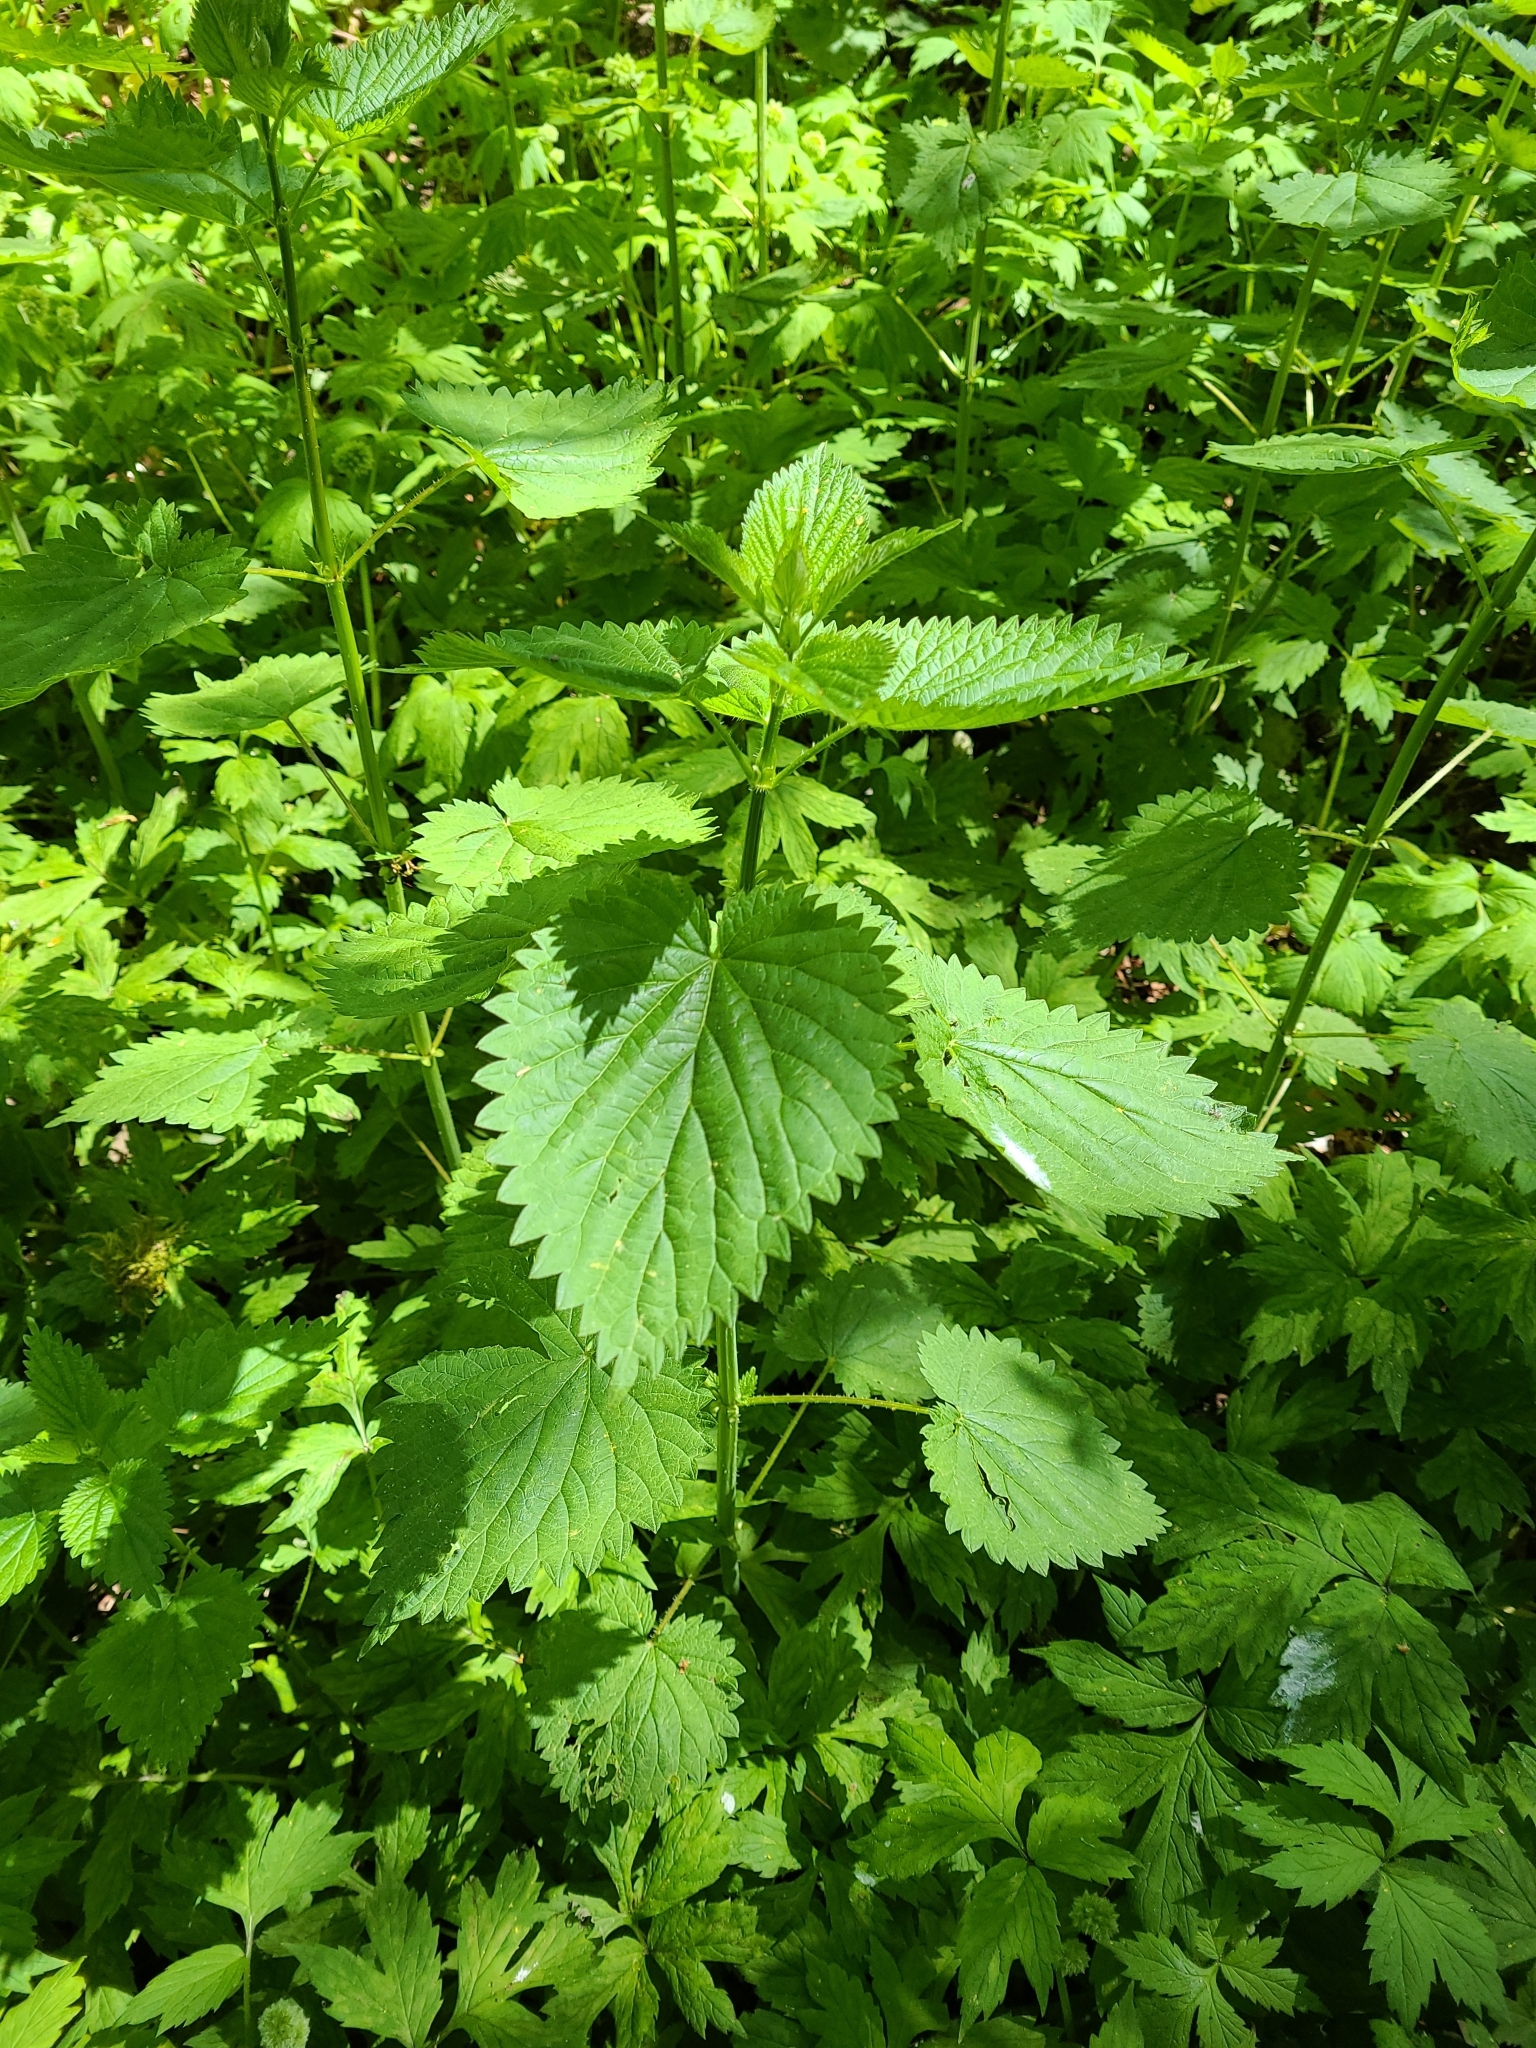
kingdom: Plantae
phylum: Tracheophyta
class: Magnoliopsida
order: Rosales
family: Urticaceae
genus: Urtica
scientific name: Urtica dioica
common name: Common nettle
